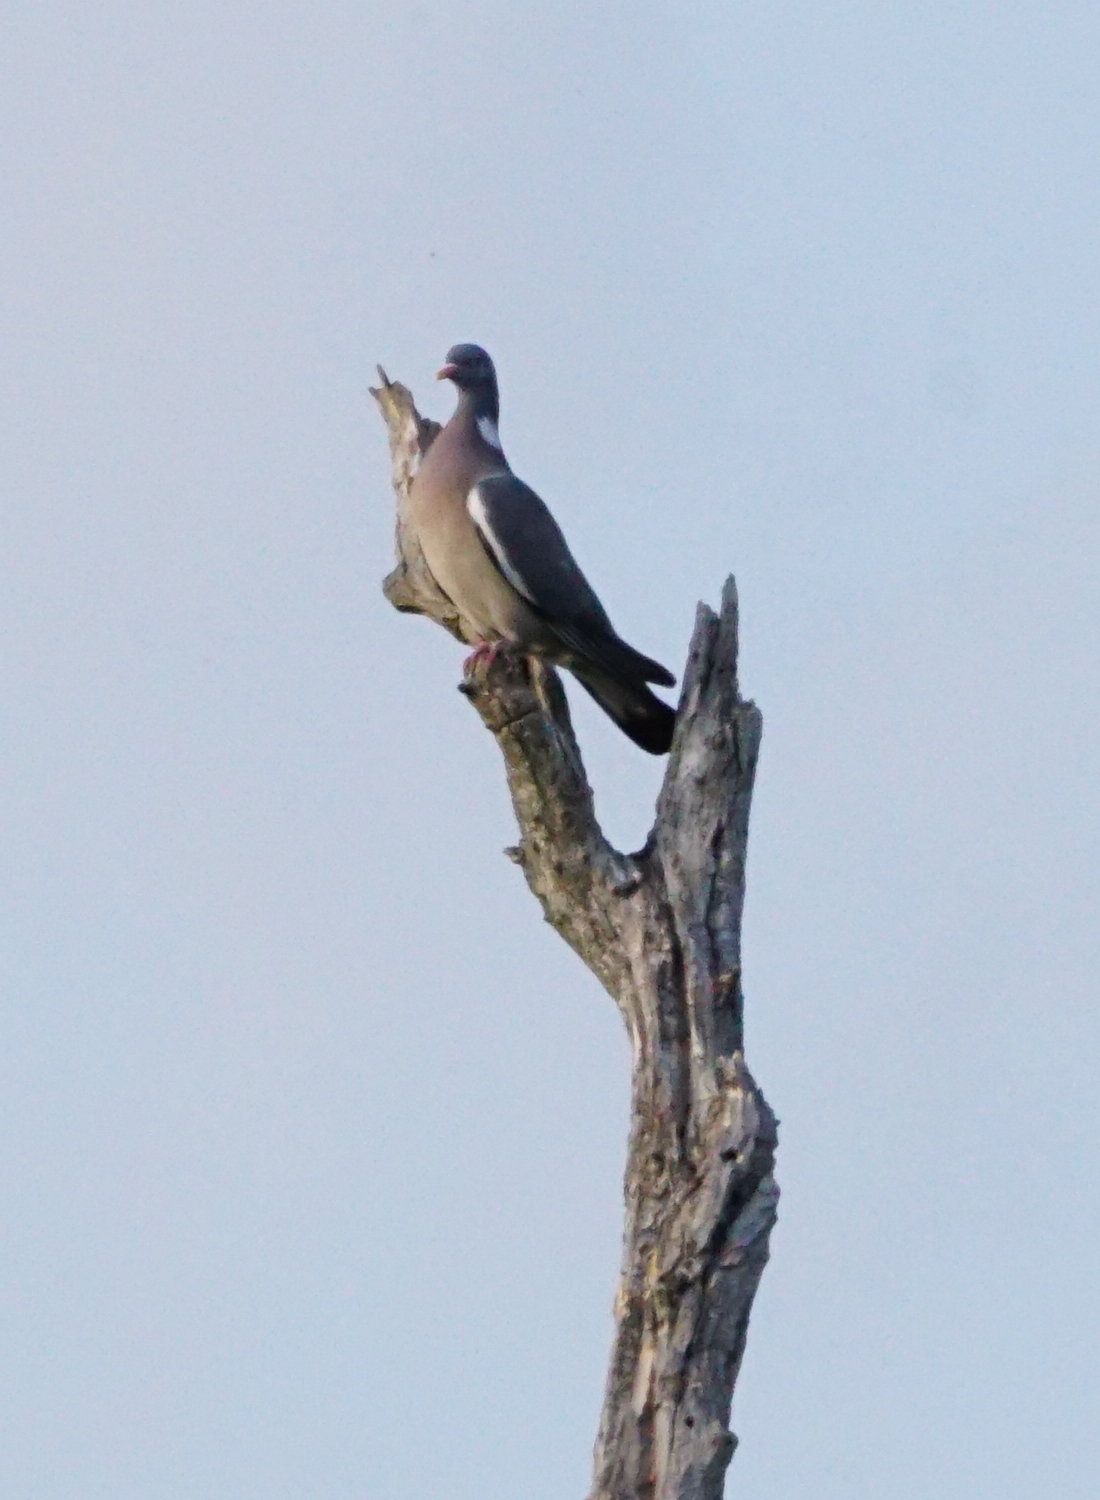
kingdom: Animalia
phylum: Chordata
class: Aves
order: Columbiformes
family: Columbidae
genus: Columba
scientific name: Columba palumbus
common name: Common wood pigeon
